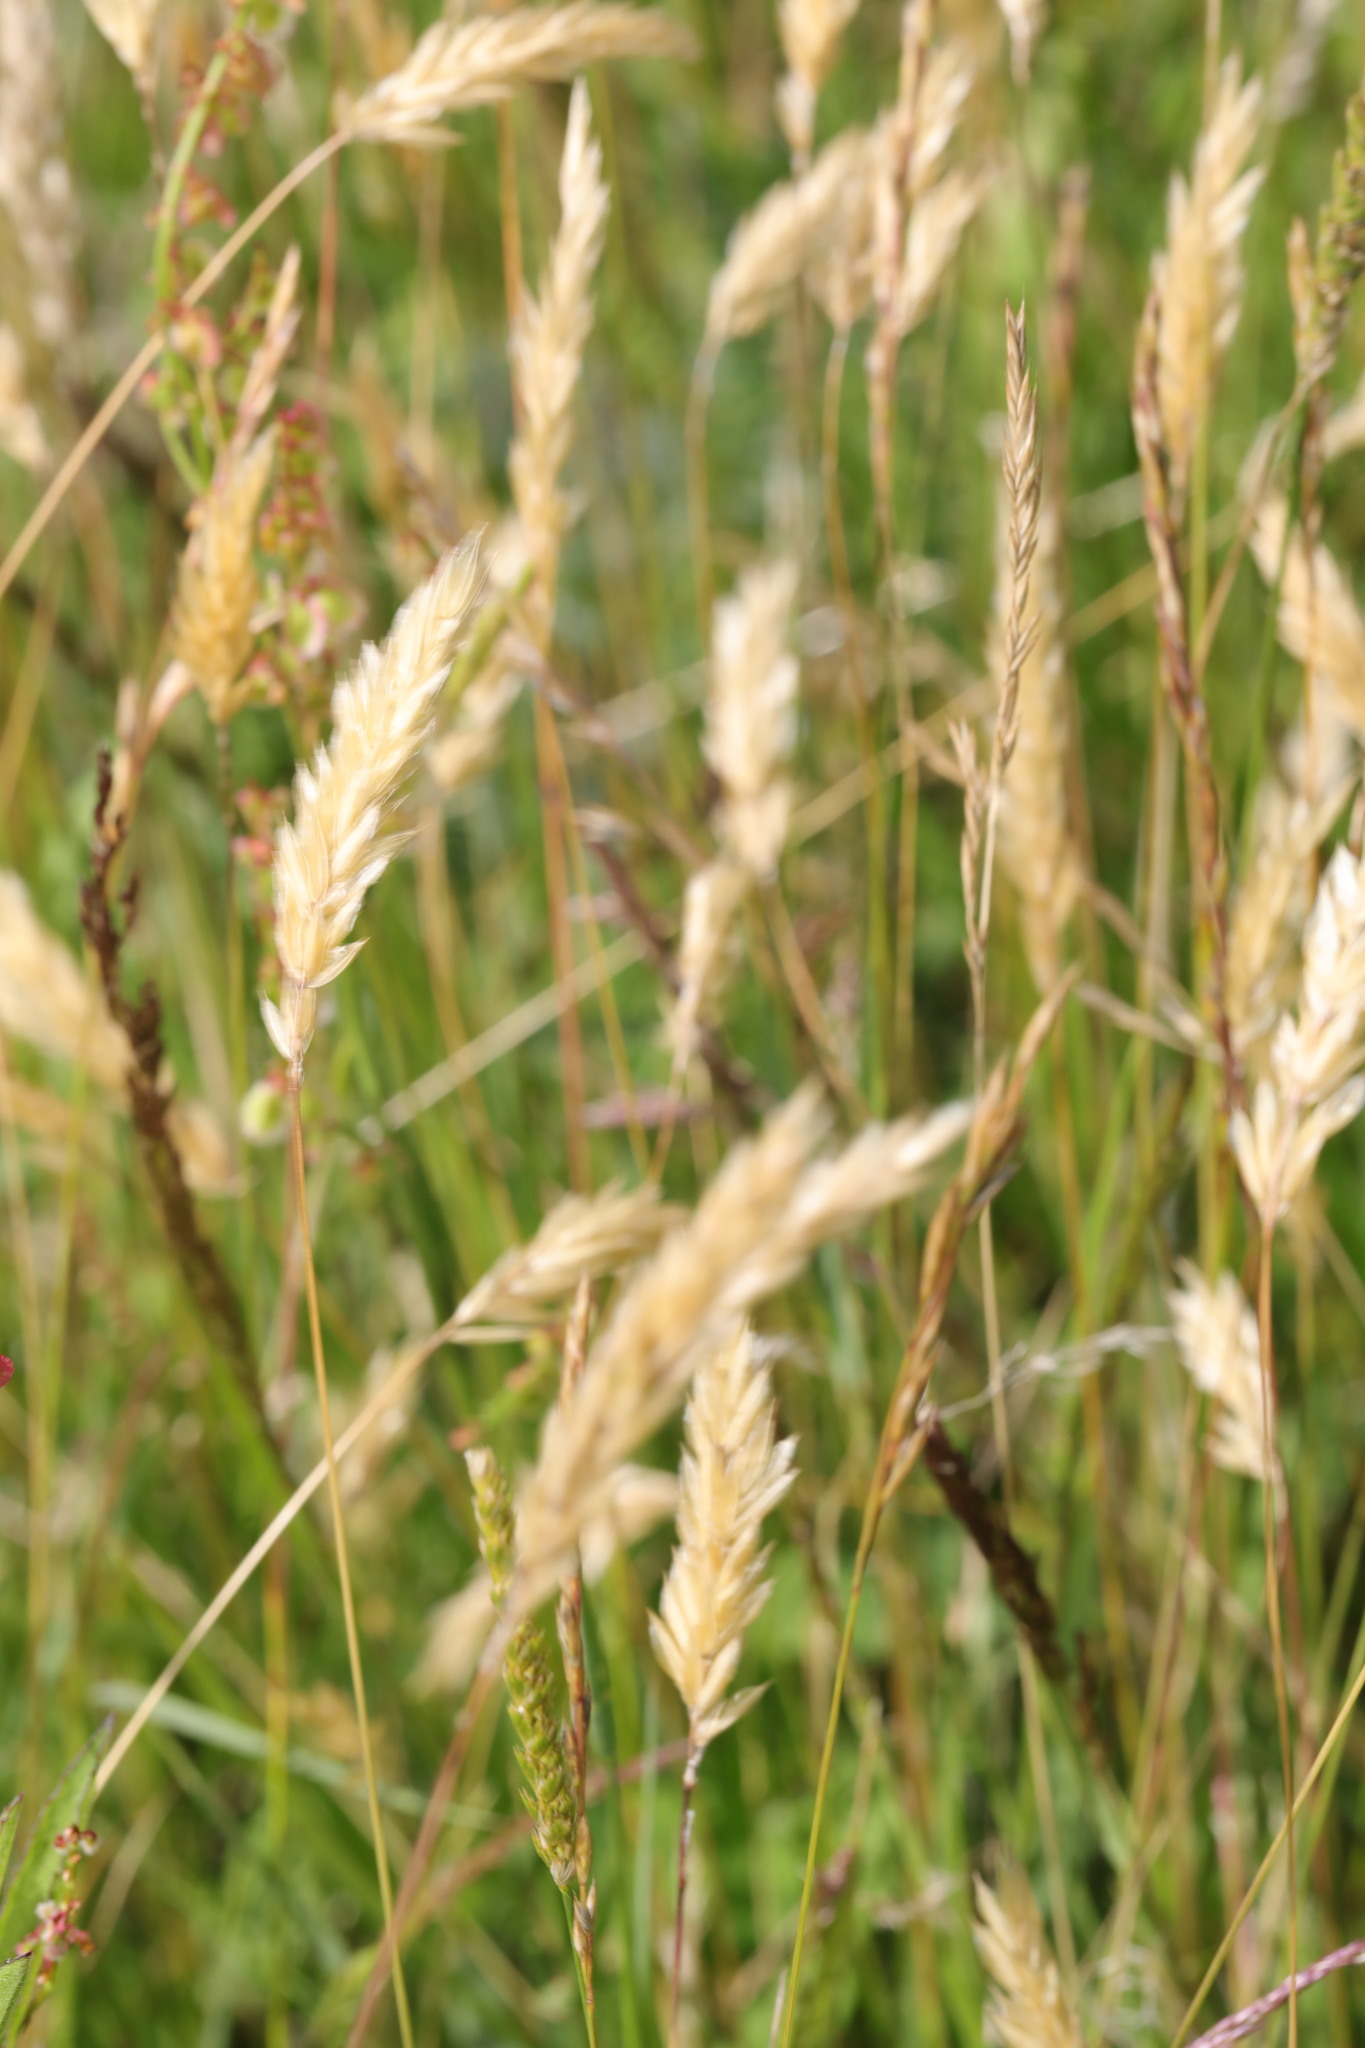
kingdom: Plantae
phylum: Tracheophyta
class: Liliopsida
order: Poales
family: Poaceae
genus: Anthoxanthum
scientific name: Anthoxanthum odoratum
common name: Sweet vernalgrass
